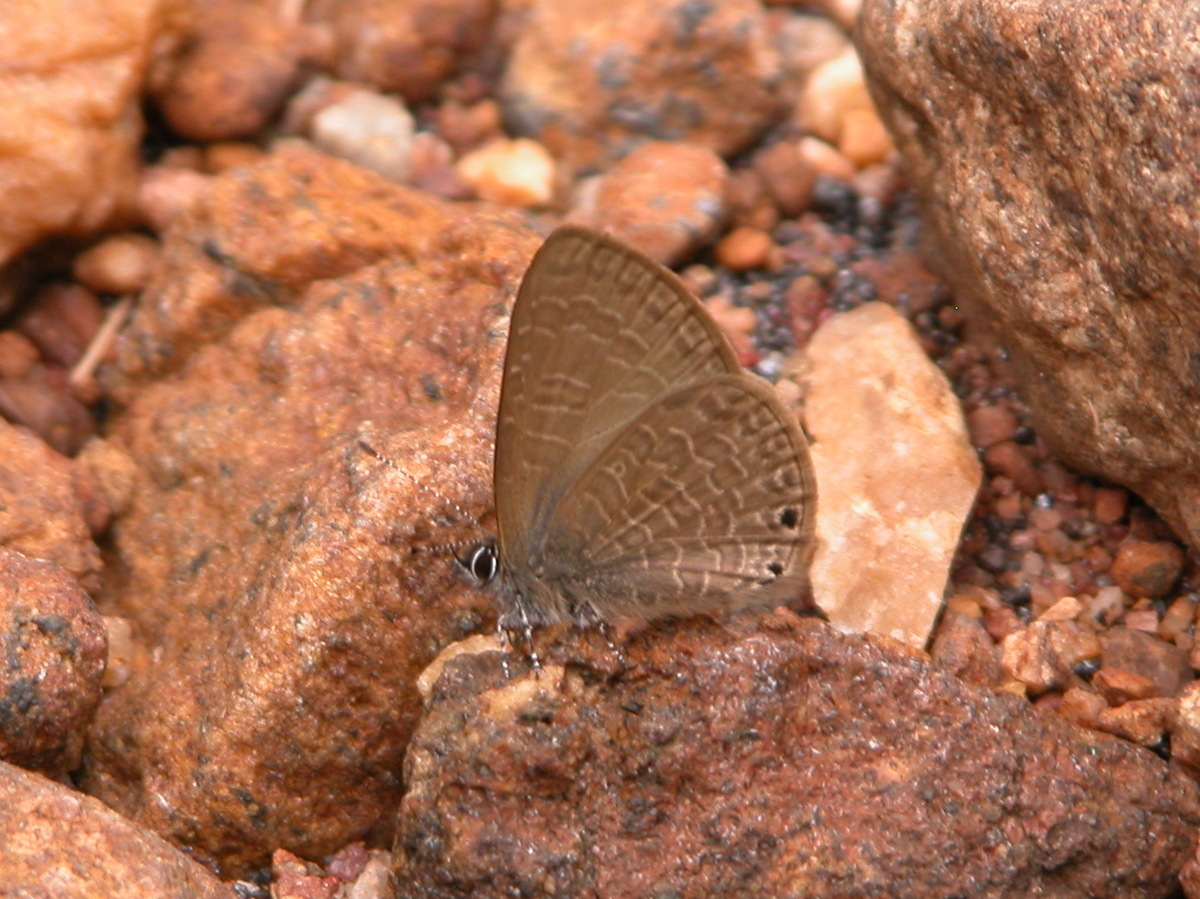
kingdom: Animalia
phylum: Arthropoda
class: Insecta
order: Lepidoptera
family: Lycaenidae
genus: Petrelaea
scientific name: Petrelaea dana
